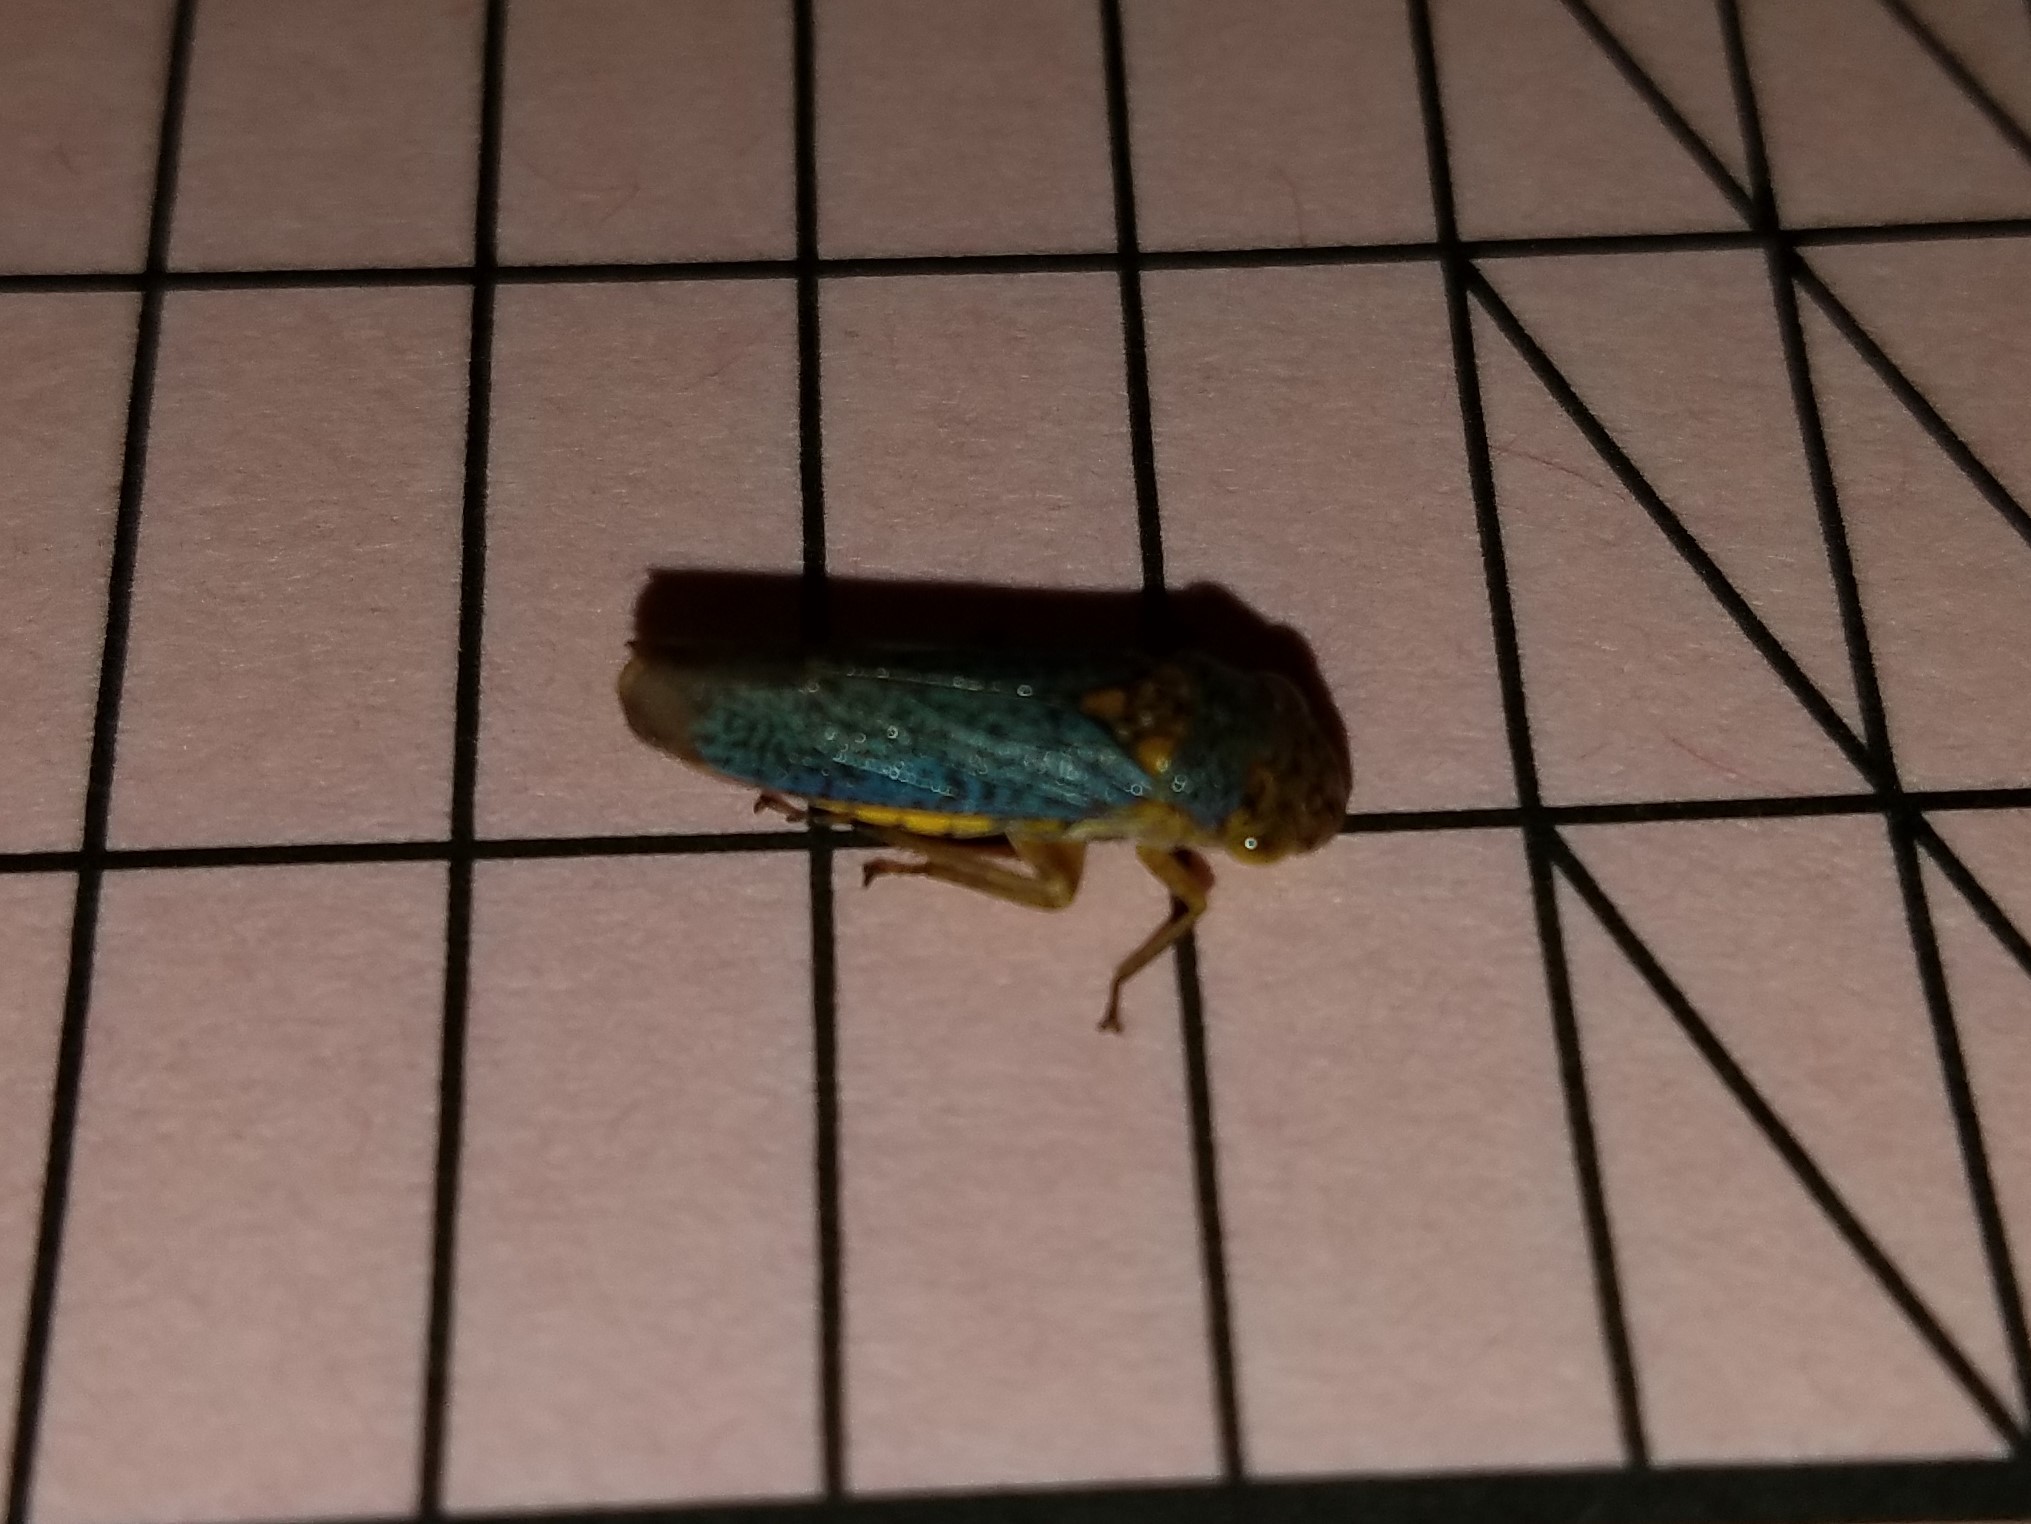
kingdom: Animalia
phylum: Arthropoda
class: Insecta
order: Hemiptera
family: Cicadellidae
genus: Oncometopia
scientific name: Oncometopia orbona
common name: Broad-headed sharpshooter
